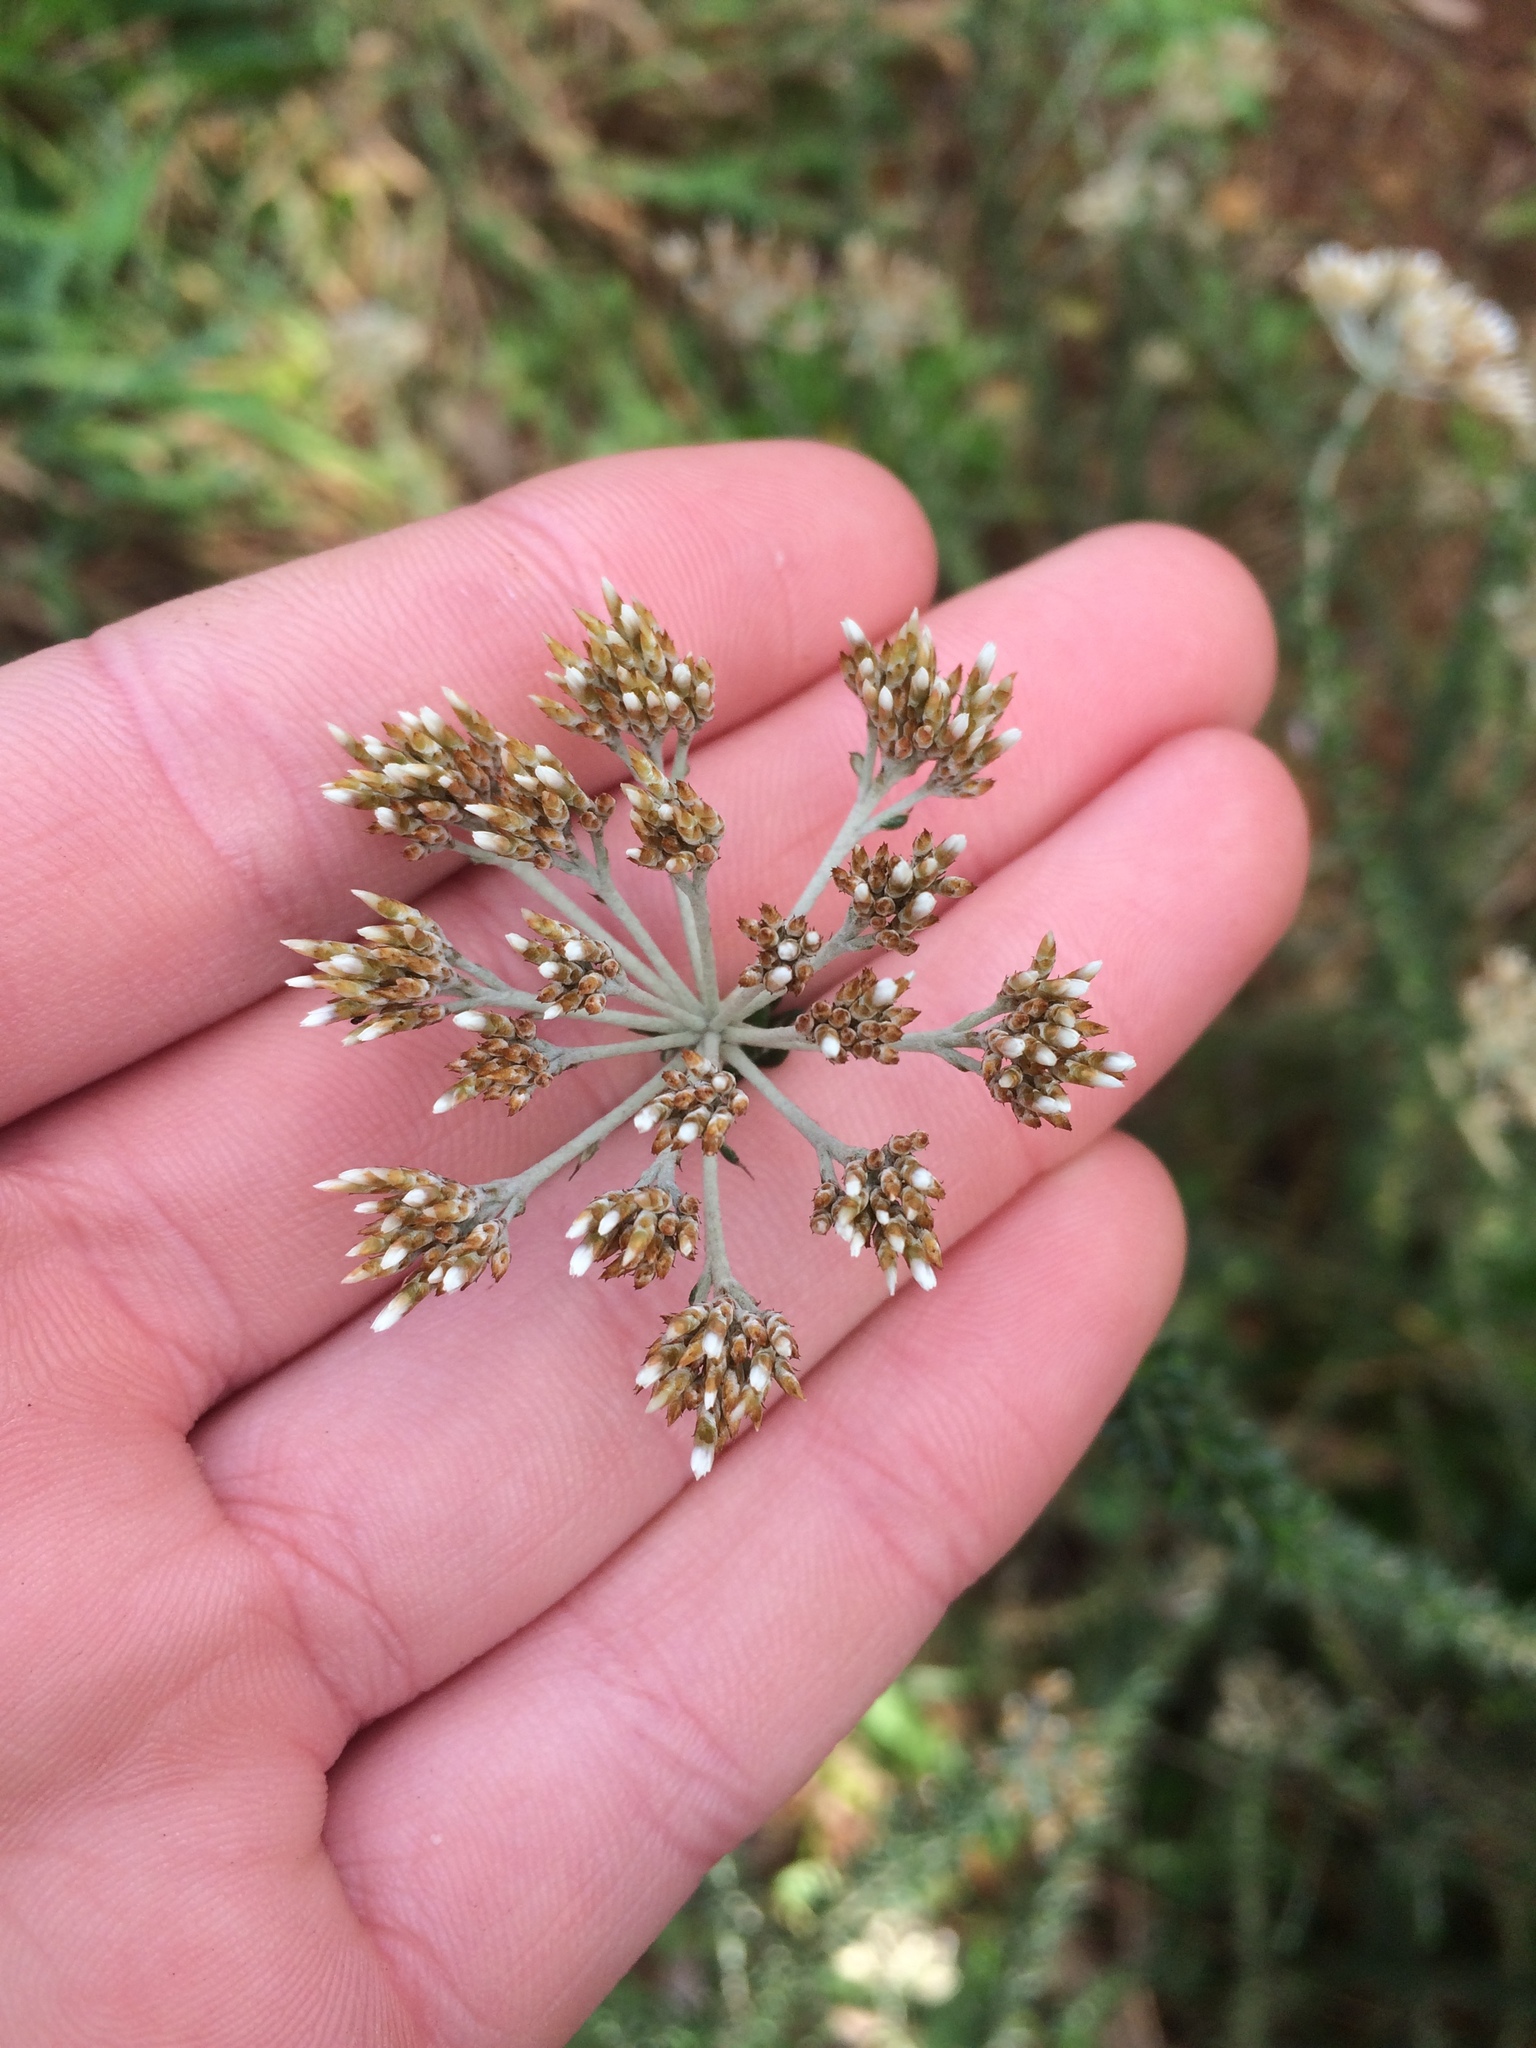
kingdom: Plantae
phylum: Tracheophyta
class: Magnoliopsida
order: Asterales
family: Asteraceae
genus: Metalasia
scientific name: Metalasia densa
